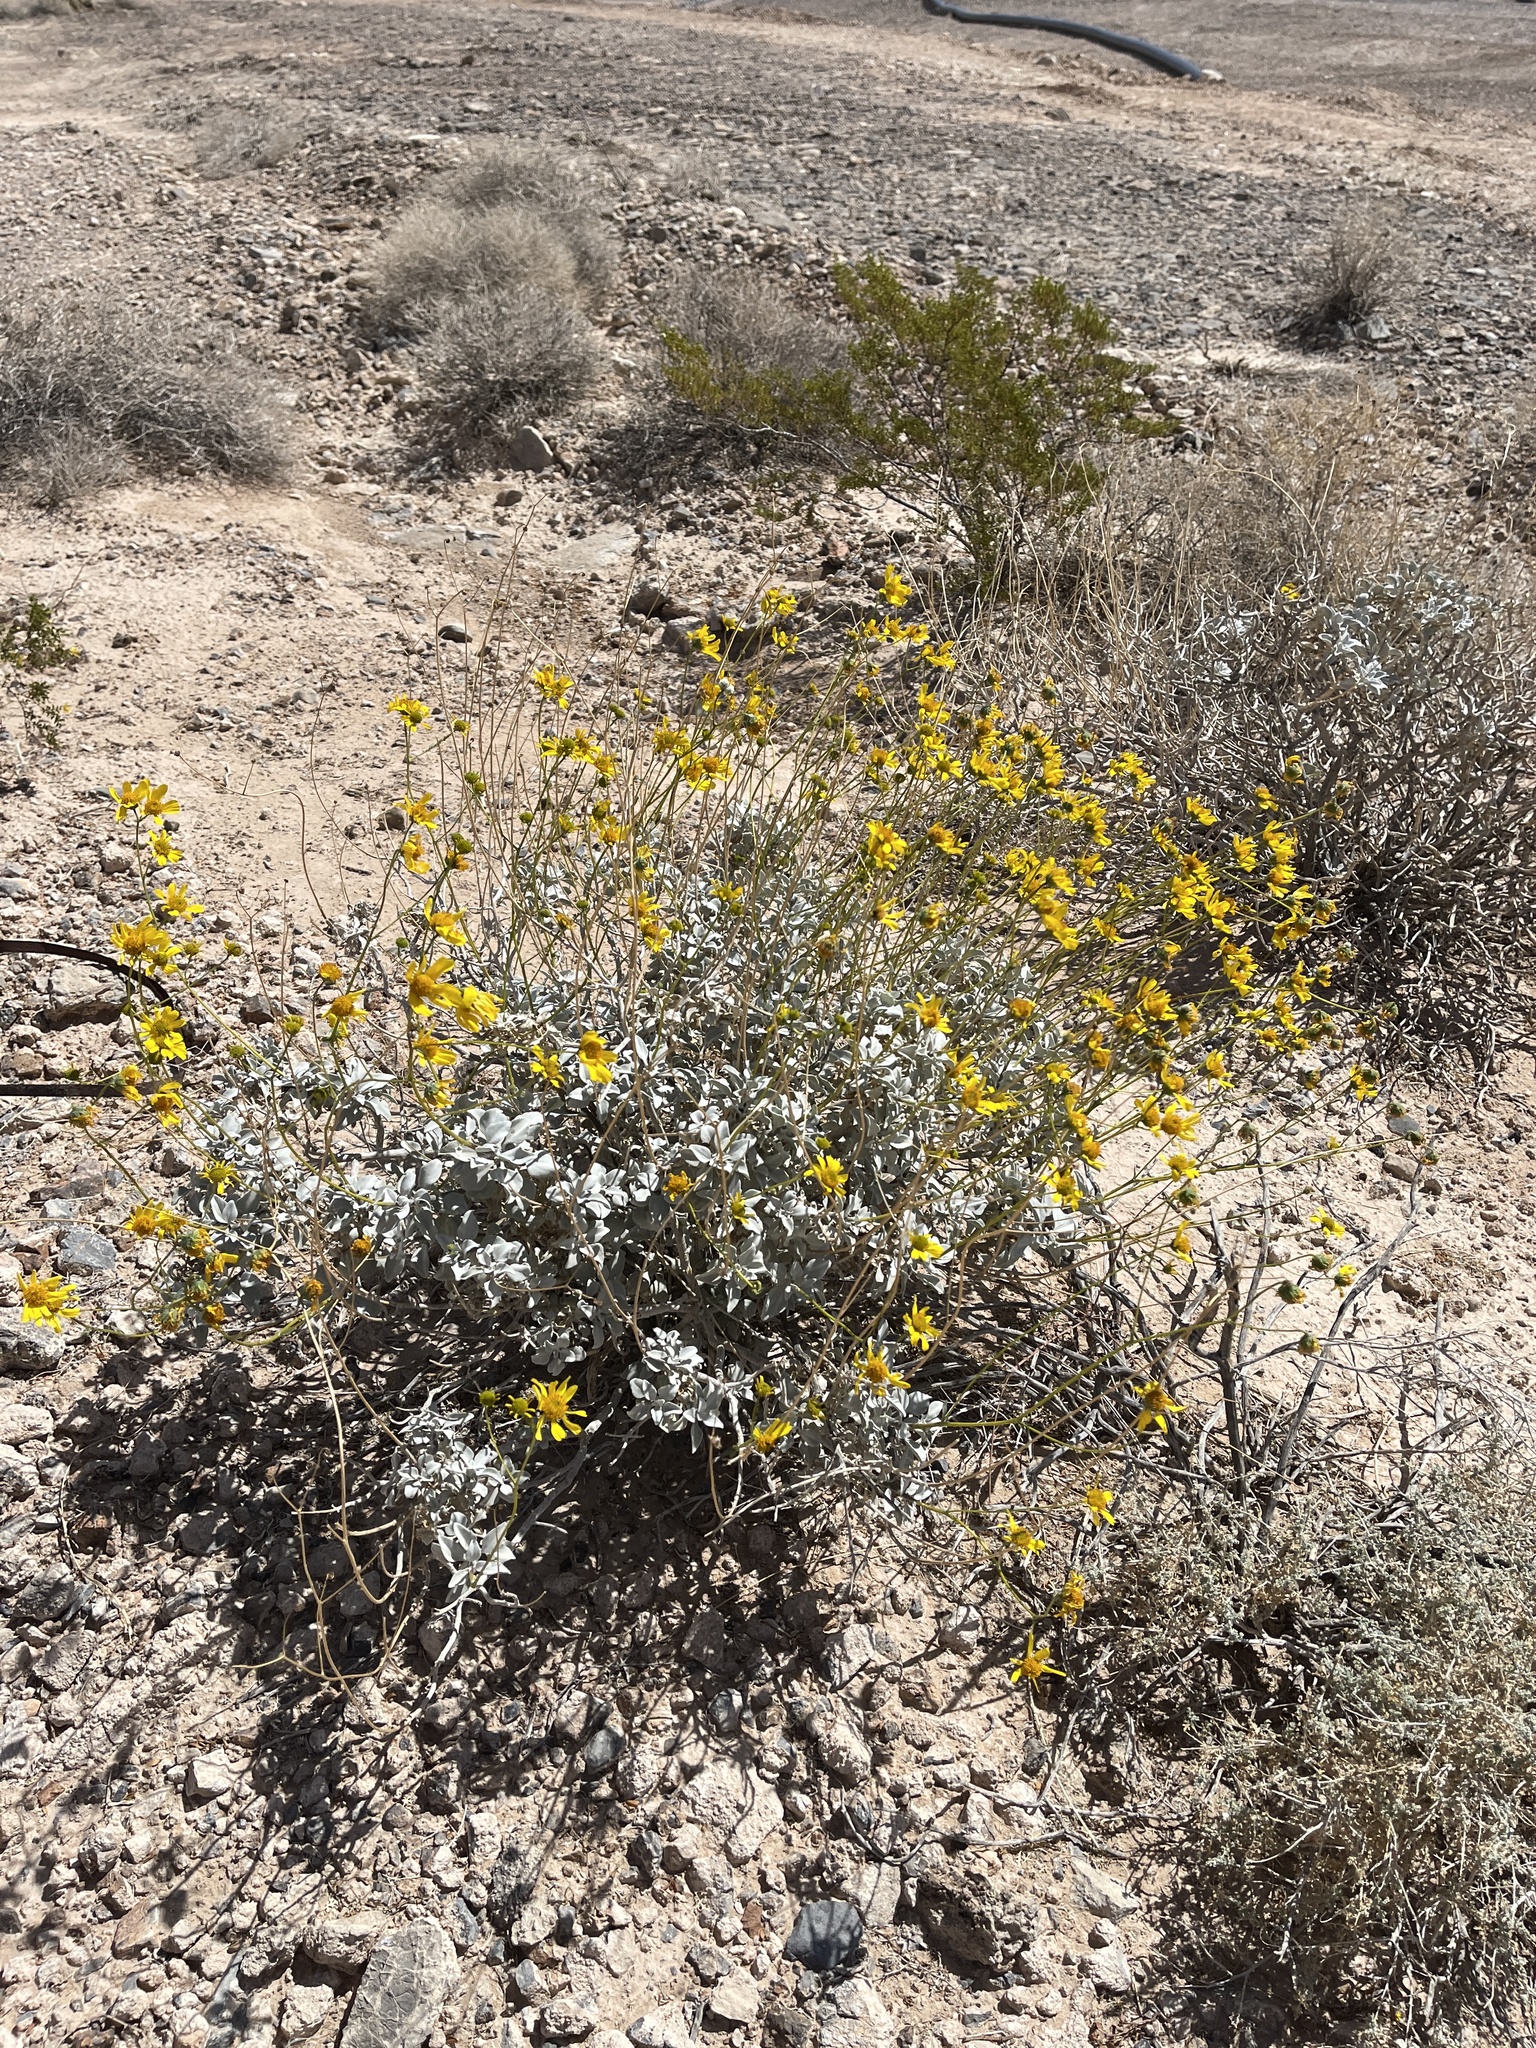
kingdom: Plantae
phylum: Tracheophyta
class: Magnoliopsida
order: Asterales
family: Asteraceae
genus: Encelia
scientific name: Encelia farinosa
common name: Brittlebush
